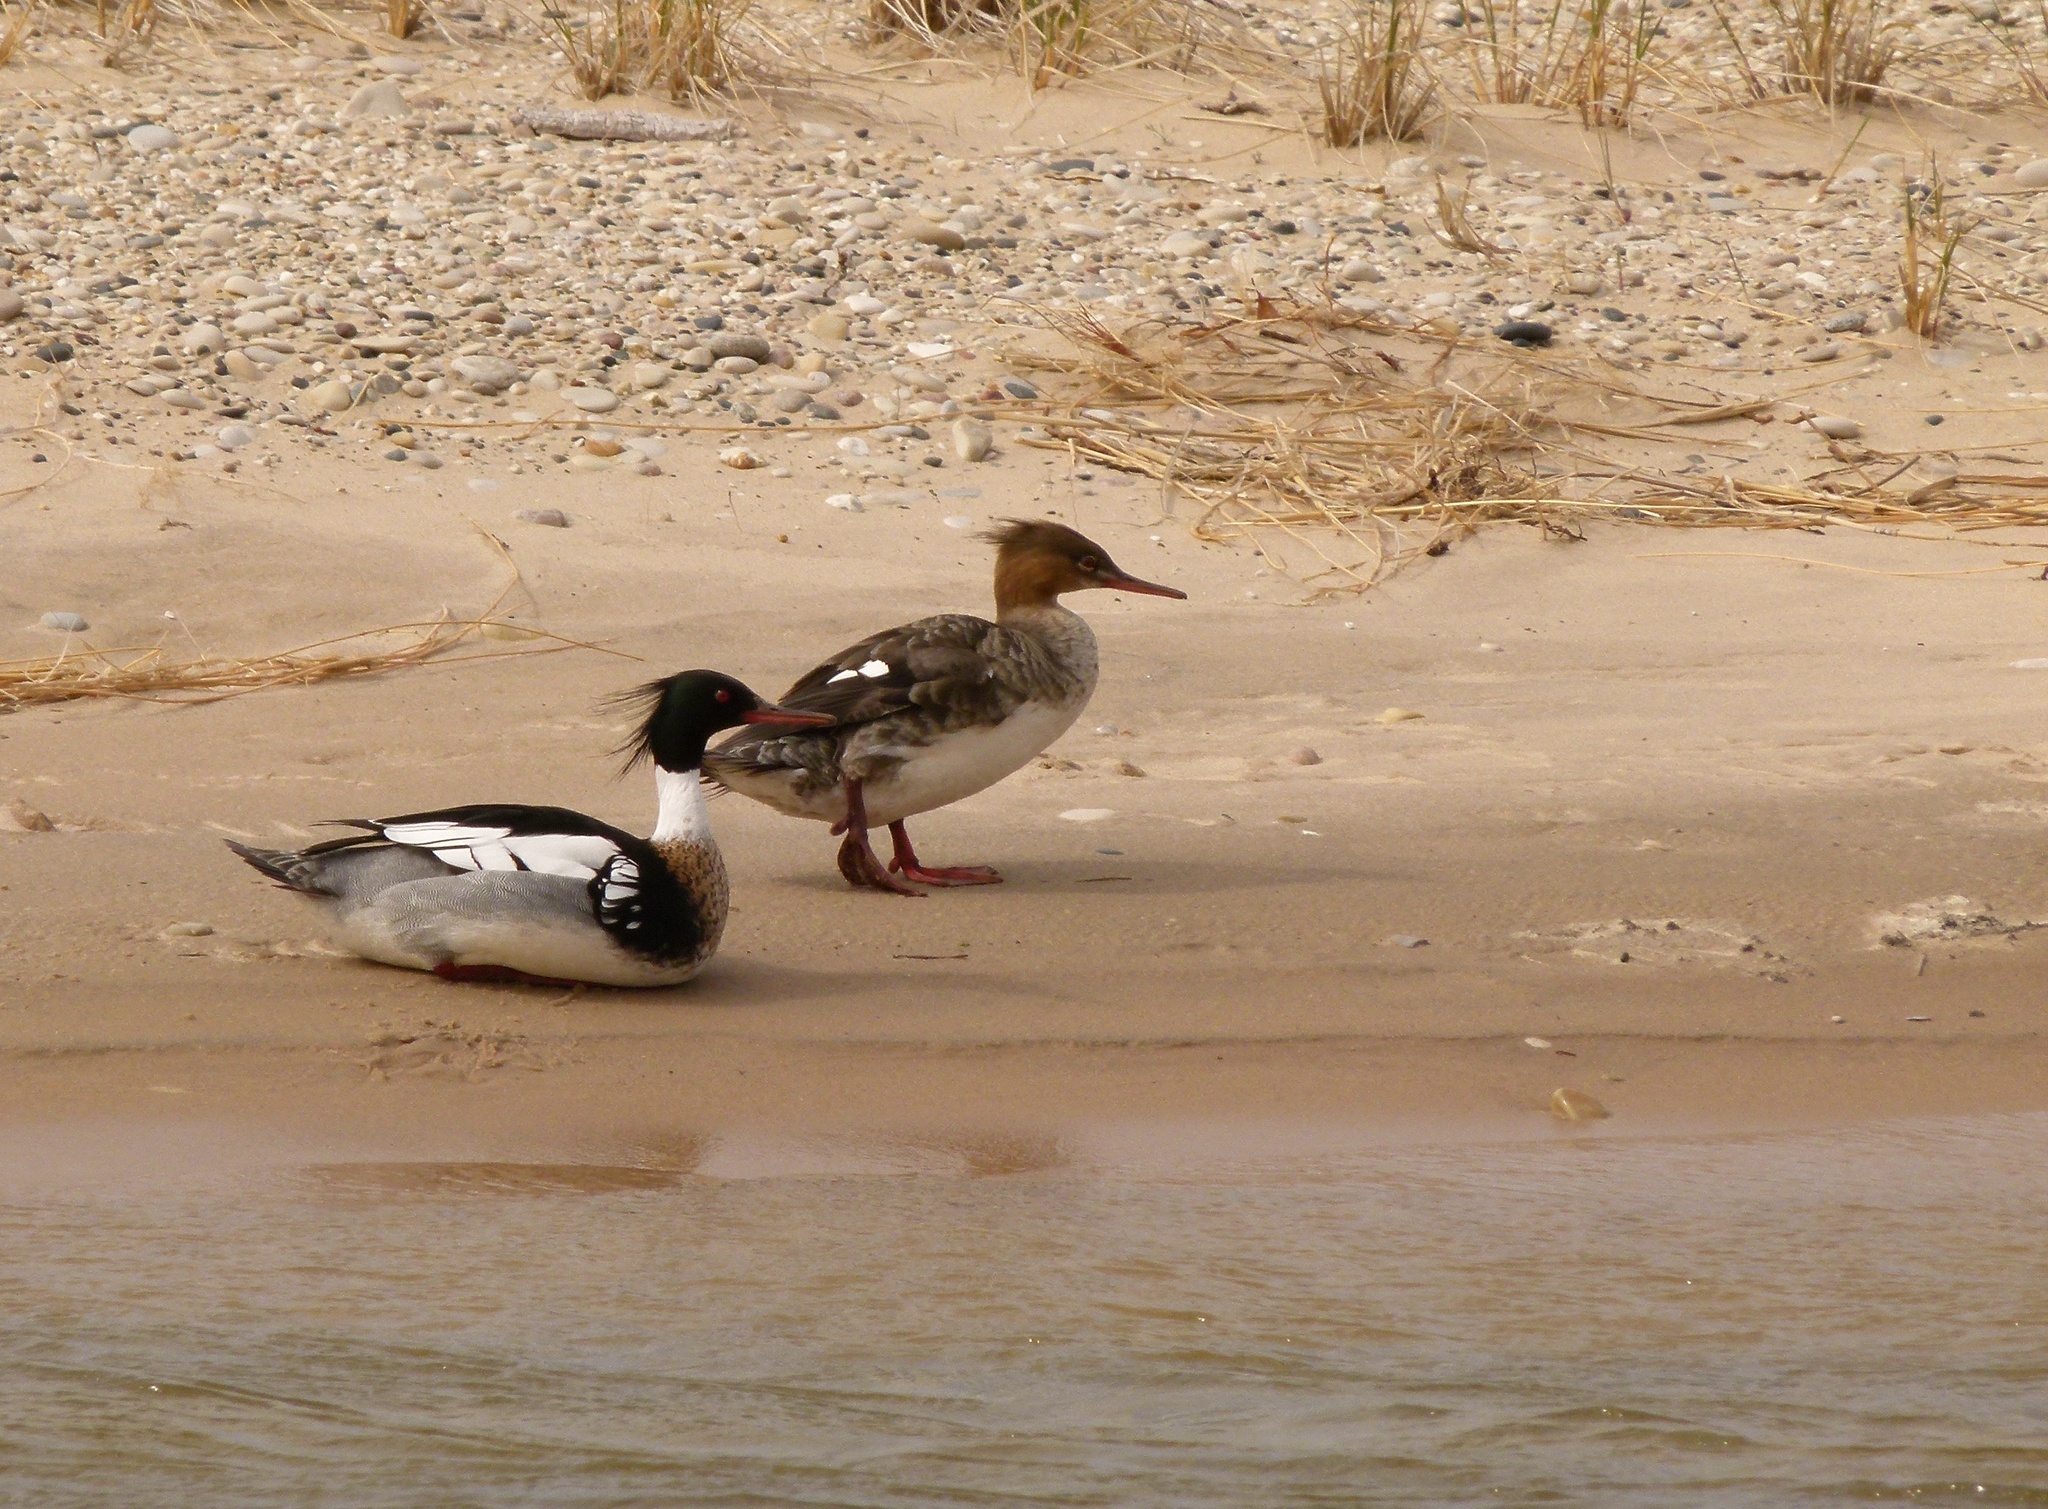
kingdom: Animalia
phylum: Chordata
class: Aves
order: Anseriformes
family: Anatidae
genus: Mergus
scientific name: Mergus serrator
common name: Red-breasted merganser
